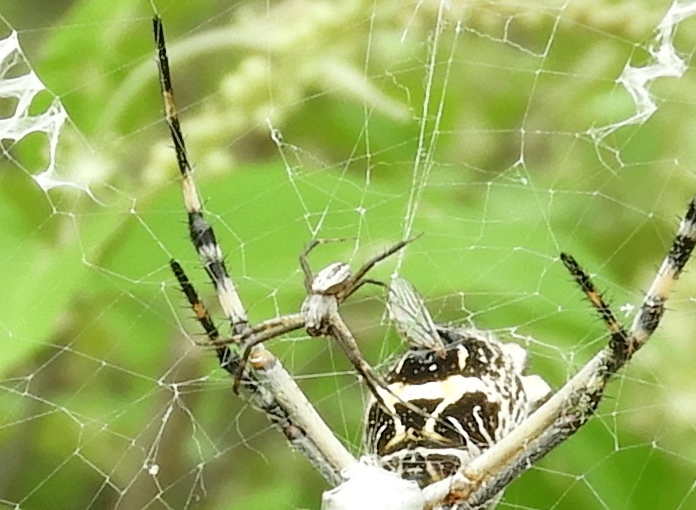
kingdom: Animalia
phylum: Arthropoda
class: Arachnida
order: Araneae
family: Araneidae
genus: Argiope
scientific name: Argiope argentata
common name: Orb weavers
